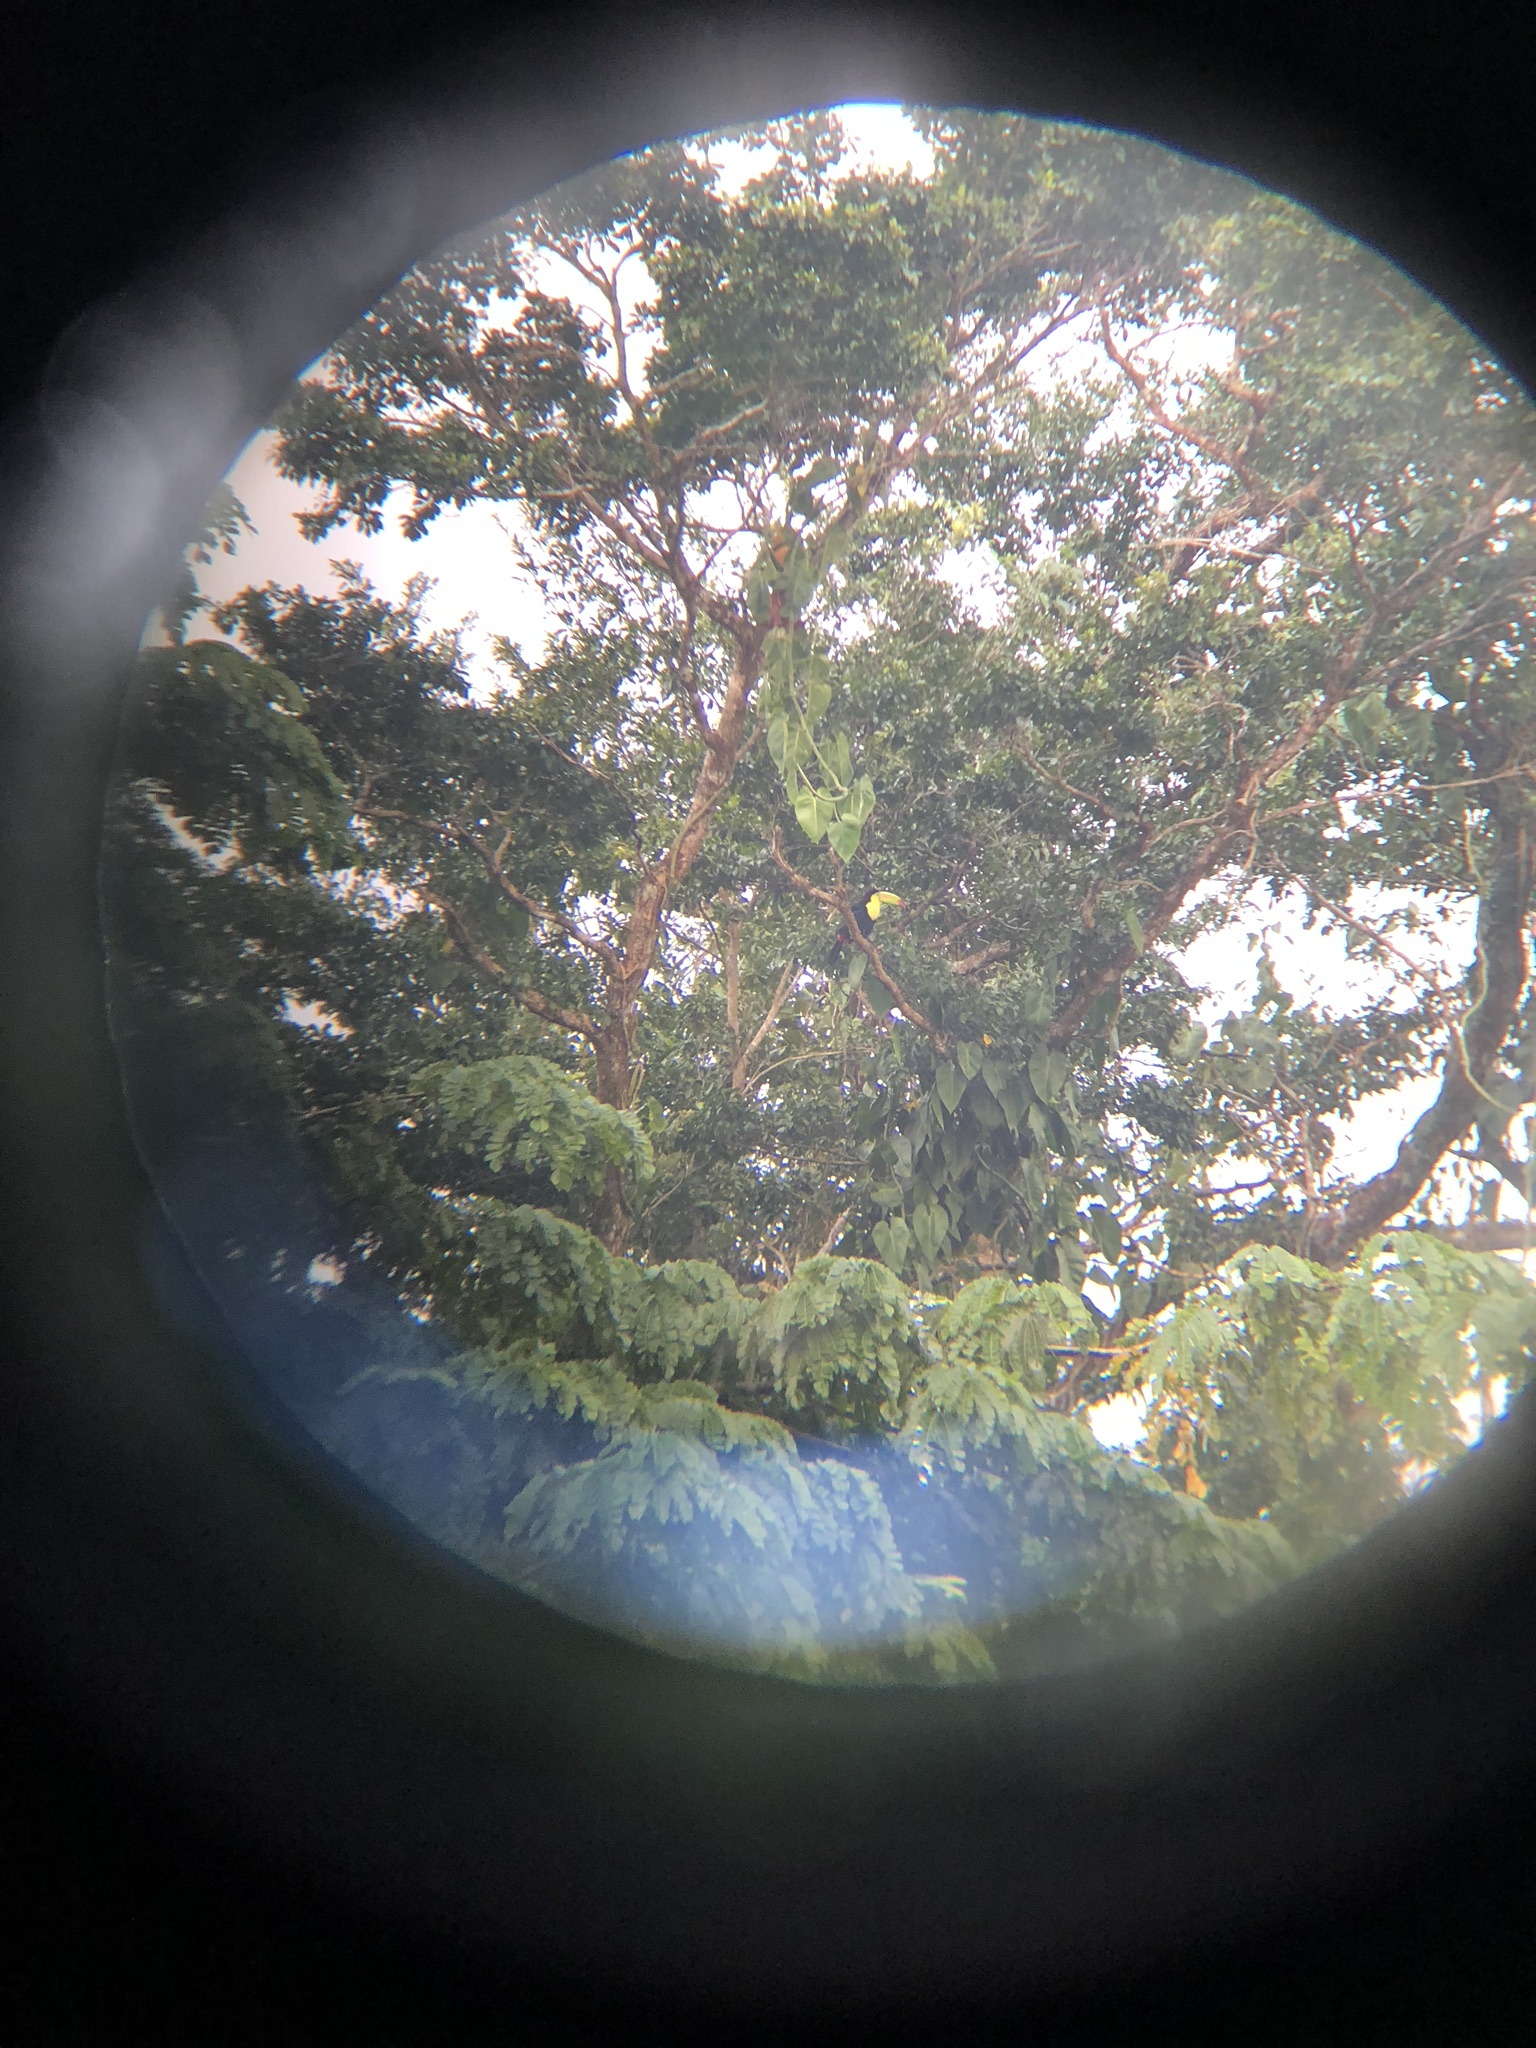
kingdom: Animalia
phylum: Chordata
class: Aves
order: Piciformes
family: Ramphastidae
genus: Ramphastos
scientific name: Ramphastos sulfuratus
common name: Keel-billed toucan
